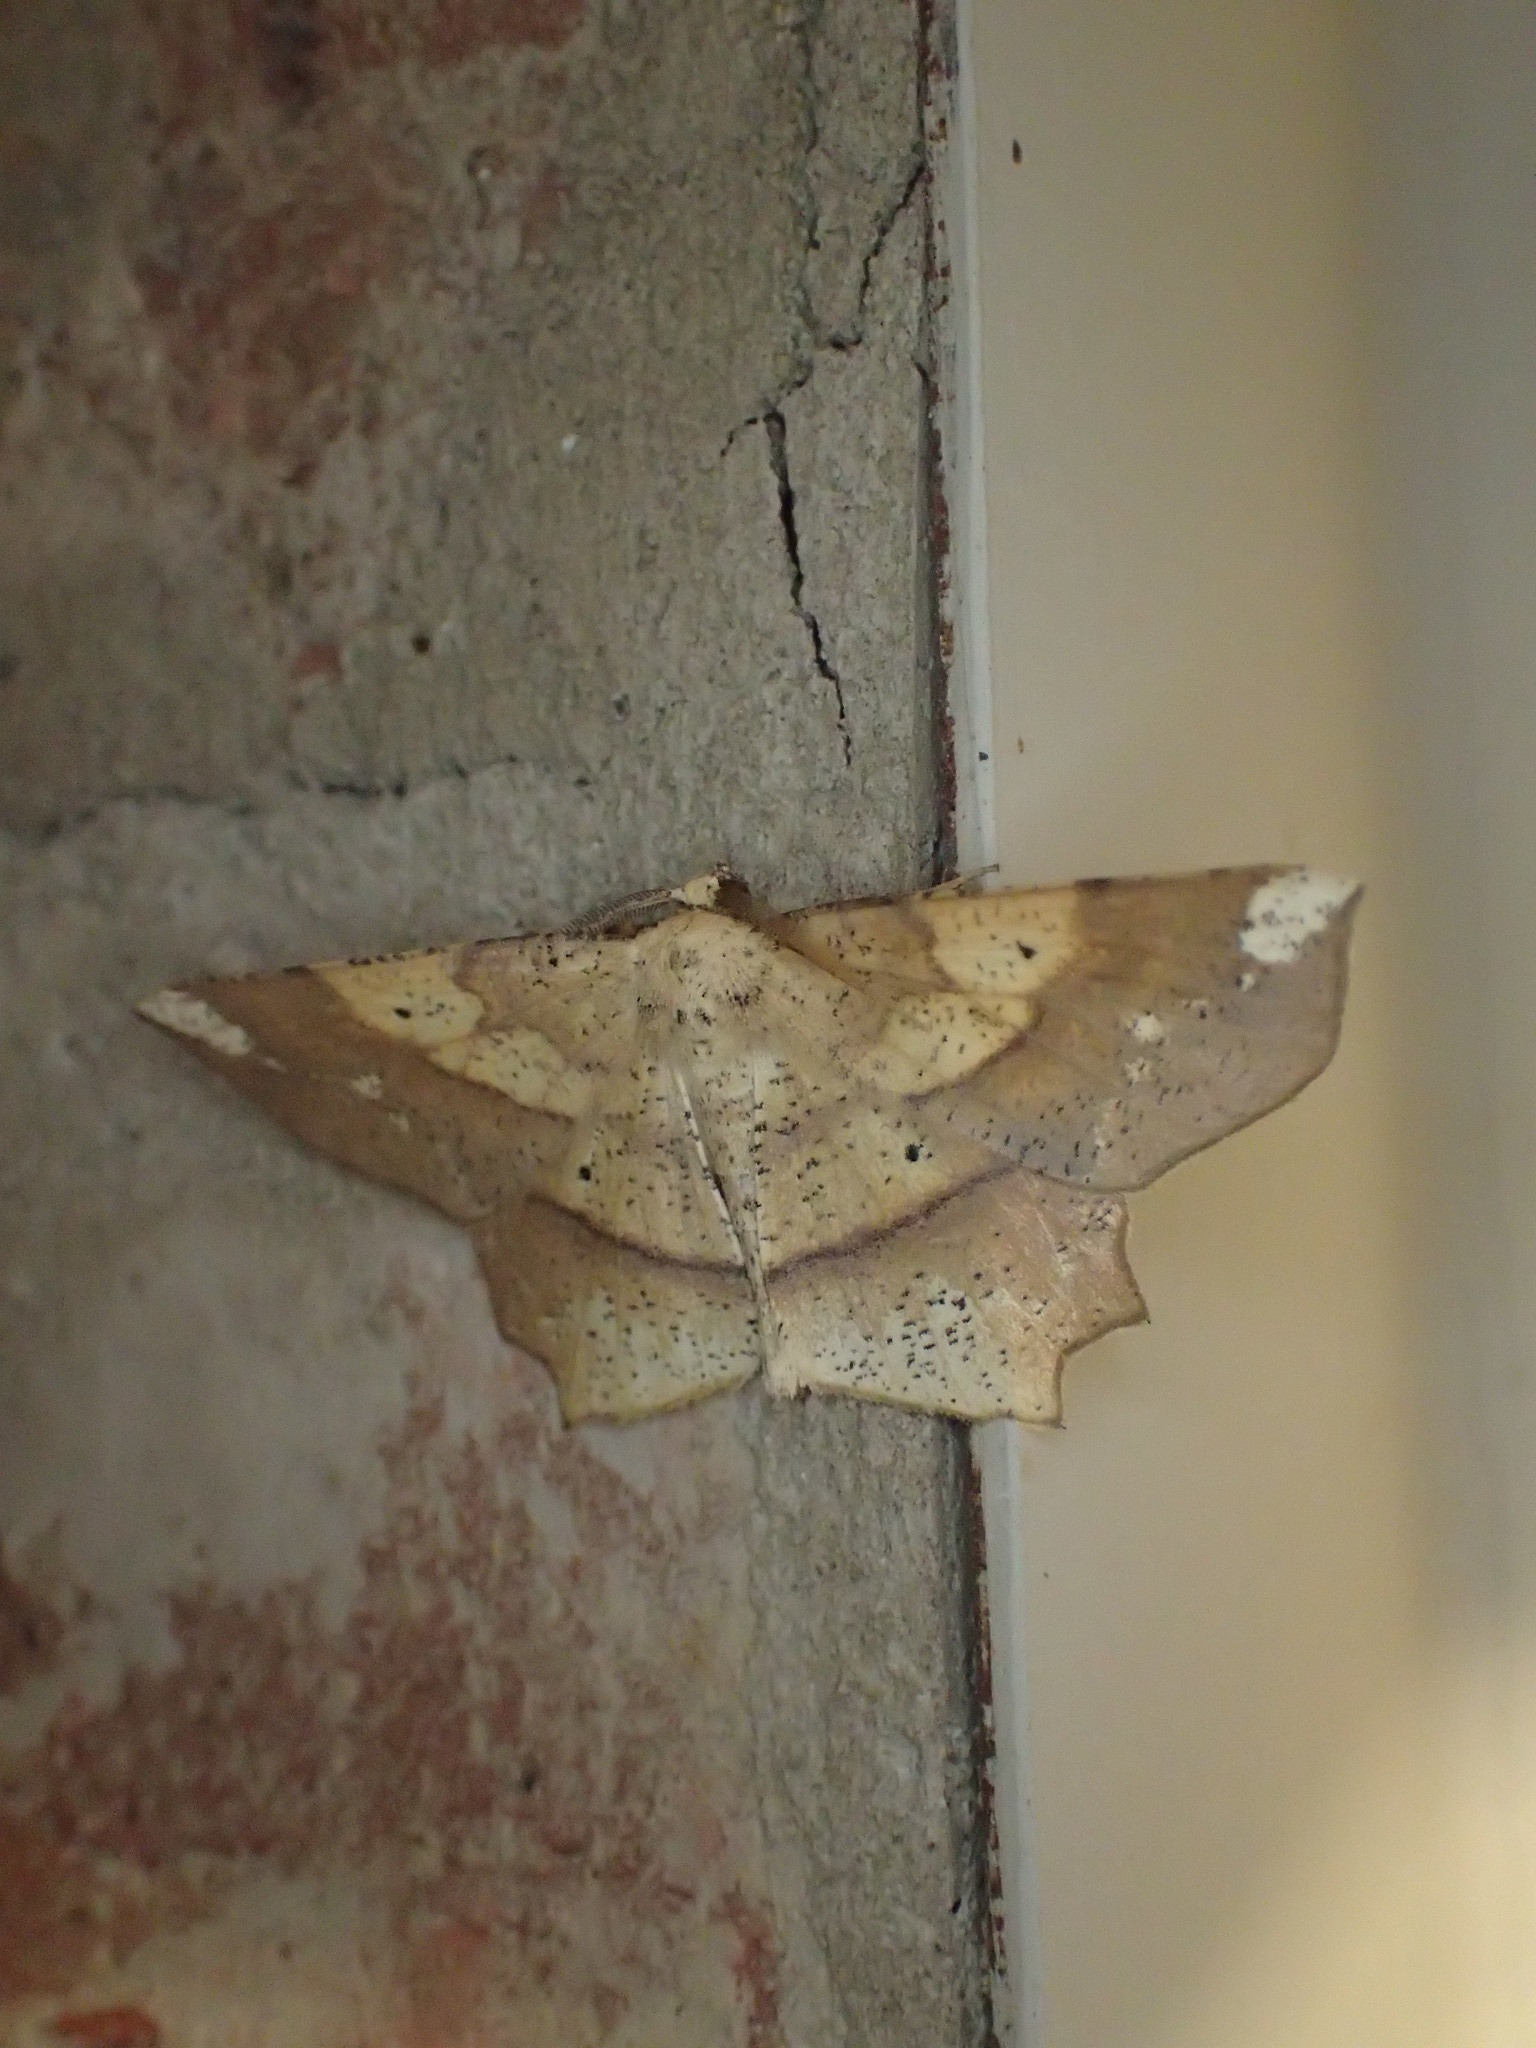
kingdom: Animalia
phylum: Arthropoda
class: Insecta
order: Lepidoptera
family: Geometridae
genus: Euchlaena
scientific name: Euchlaena amoenaria
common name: Deep yellow euchlaena
